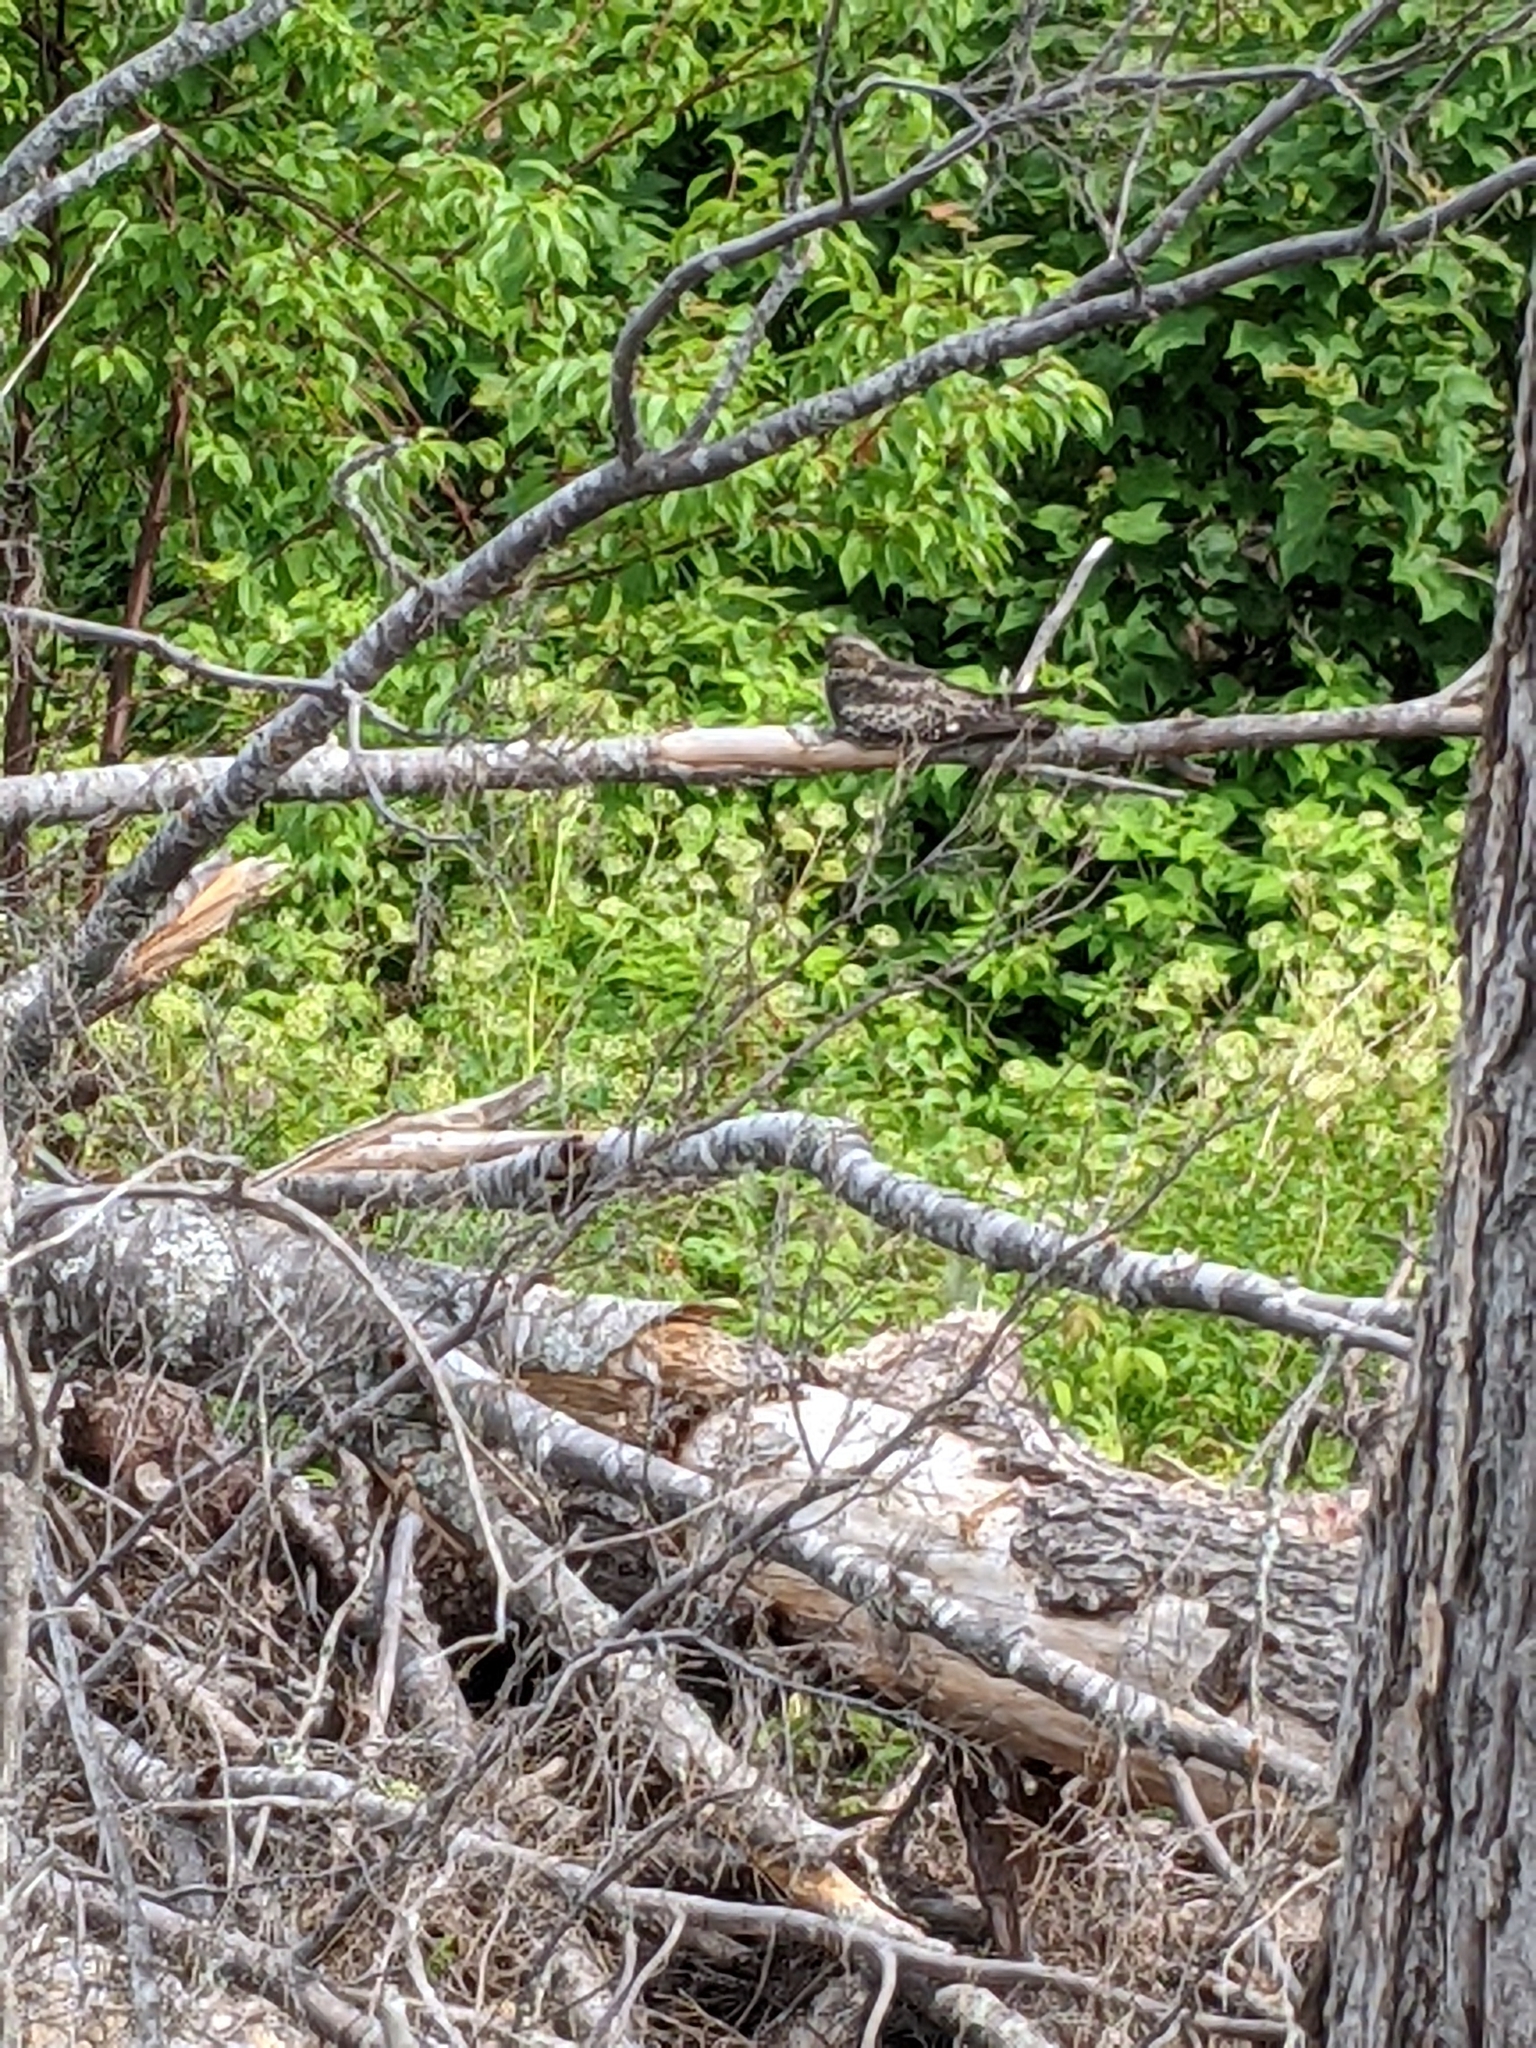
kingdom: Animalia
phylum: Chordata
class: Aves
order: Caprimulgiformes
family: Caprimulgidae
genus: Chordeiles
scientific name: Chordeiles minor
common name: Common nighthawk
